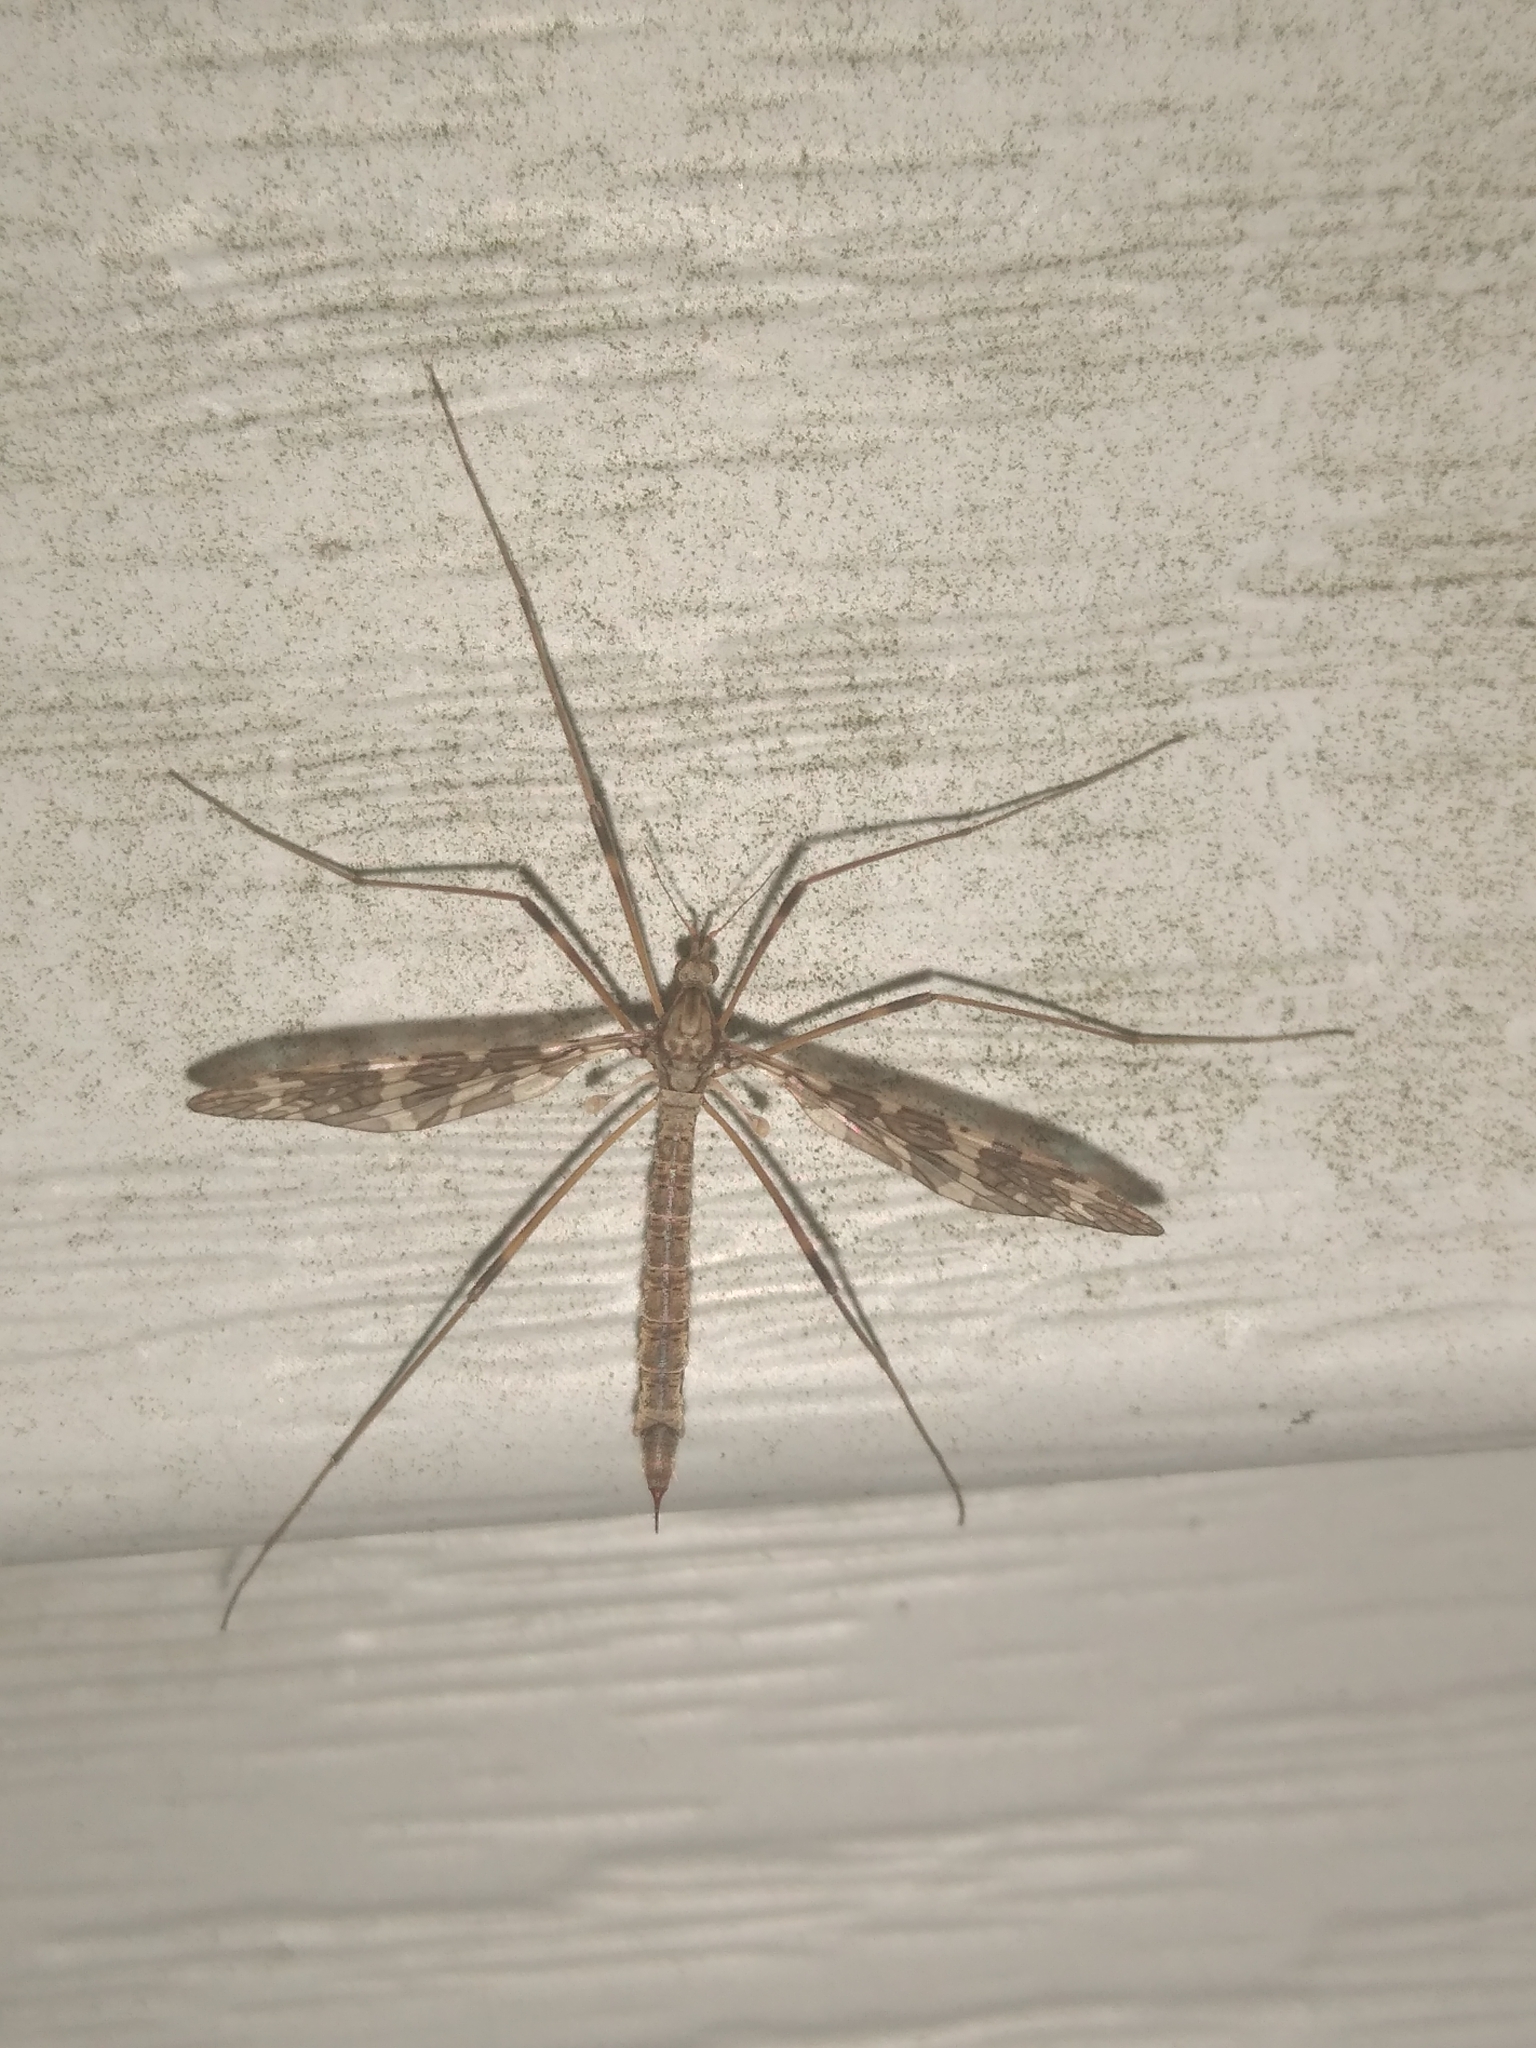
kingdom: Animalia
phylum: Arthropoda
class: Insecta
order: Diptera
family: Limoniidae
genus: Epiphragma
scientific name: Epiphragma fasciapenne
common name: Band-winged crane fly
